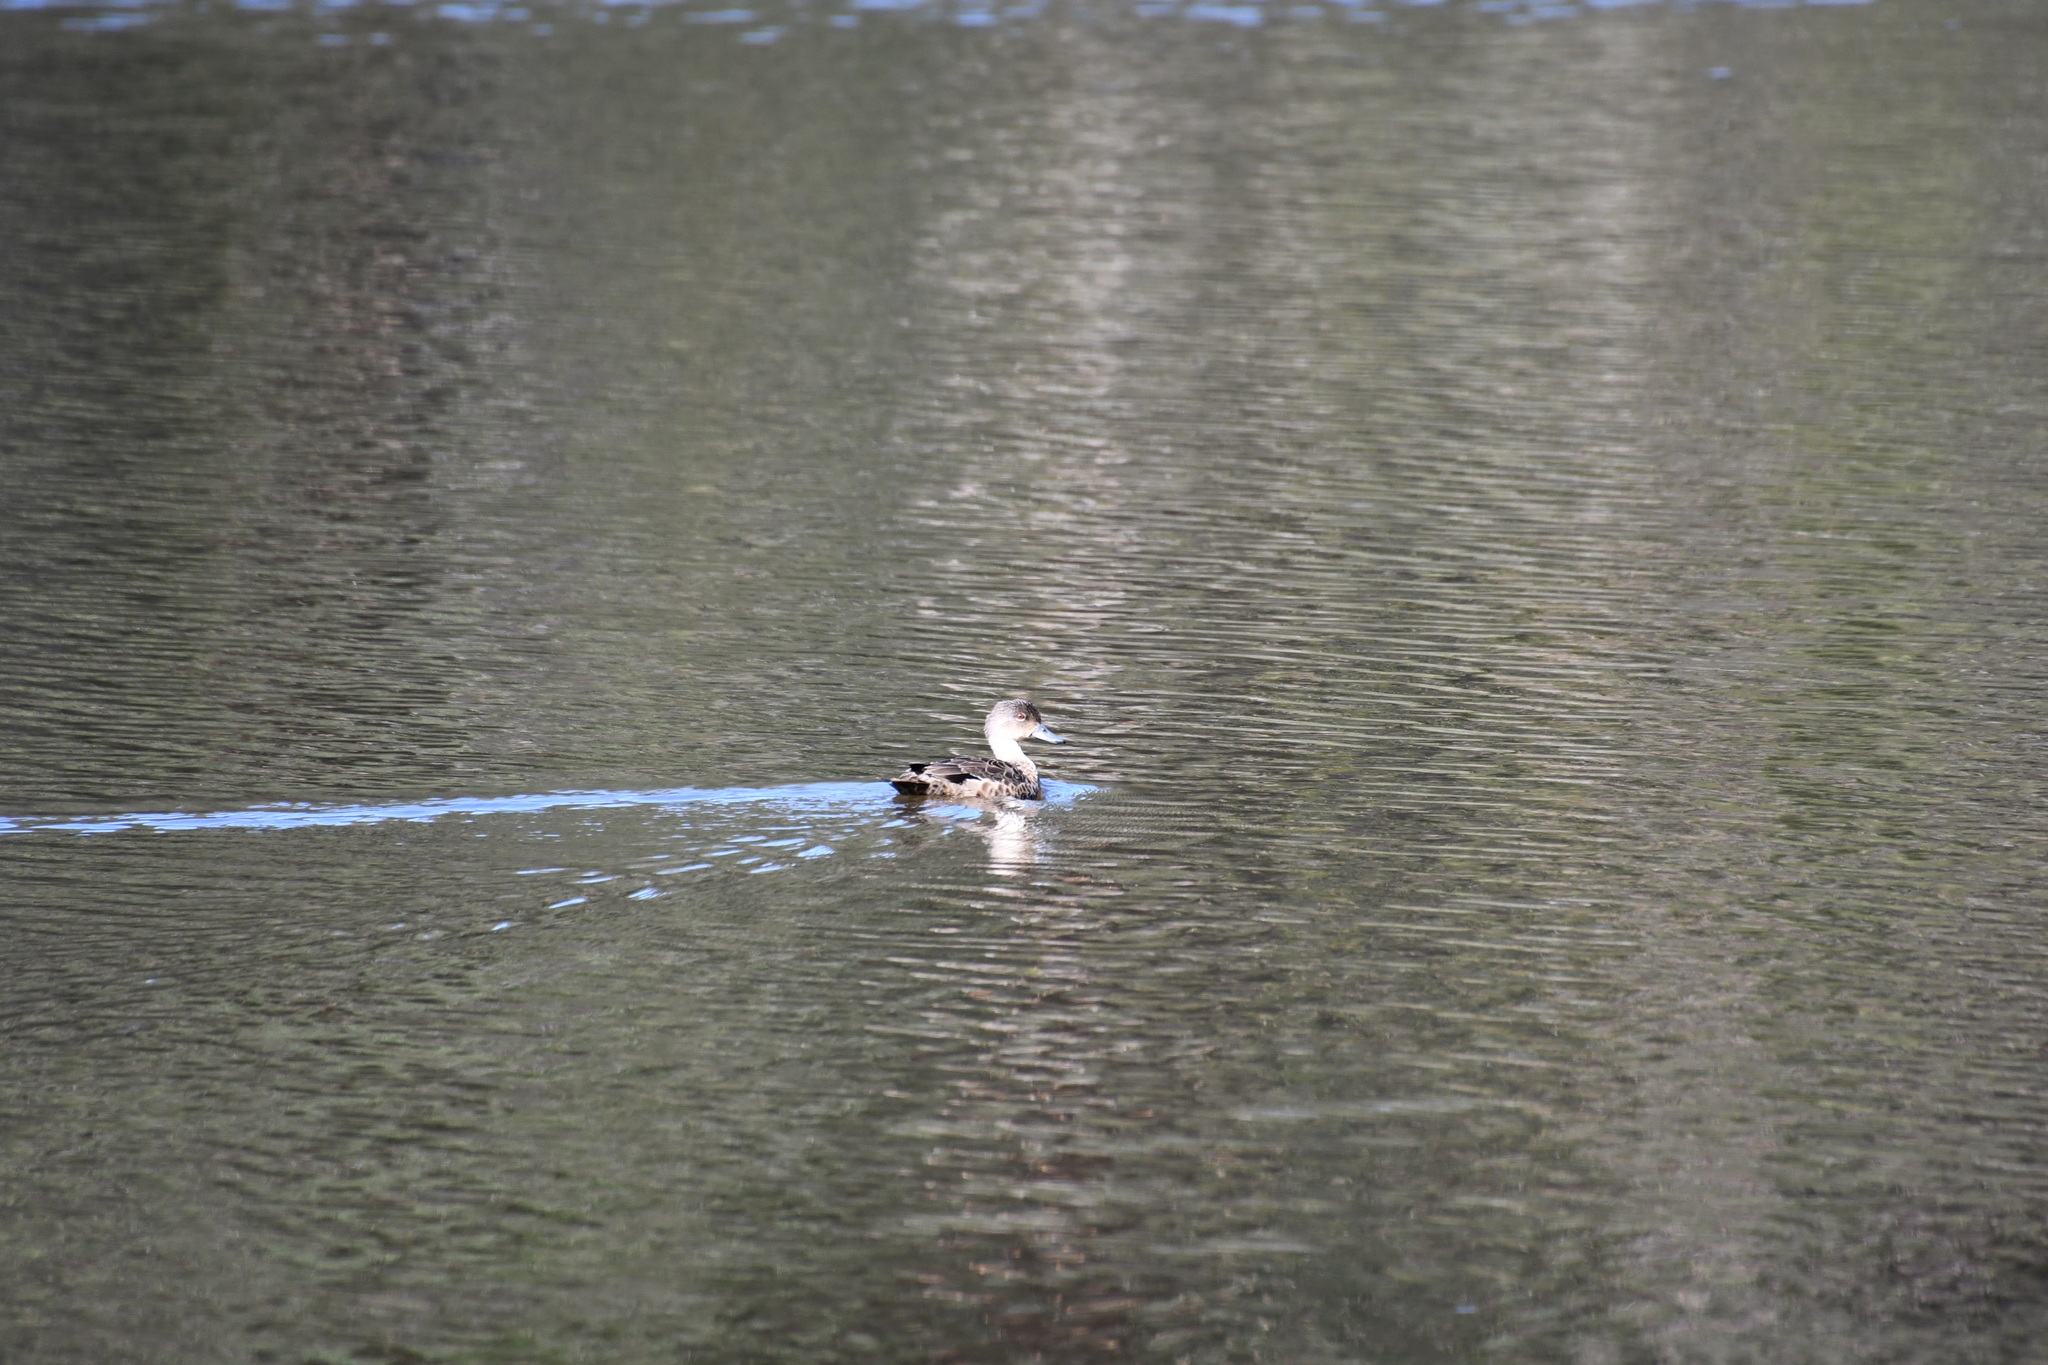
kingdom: Animalia
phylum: Chordata
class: Aves
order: Anseriformes
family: Anatidae
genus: Anas
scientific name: Anas gracilis
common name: Grey teal
